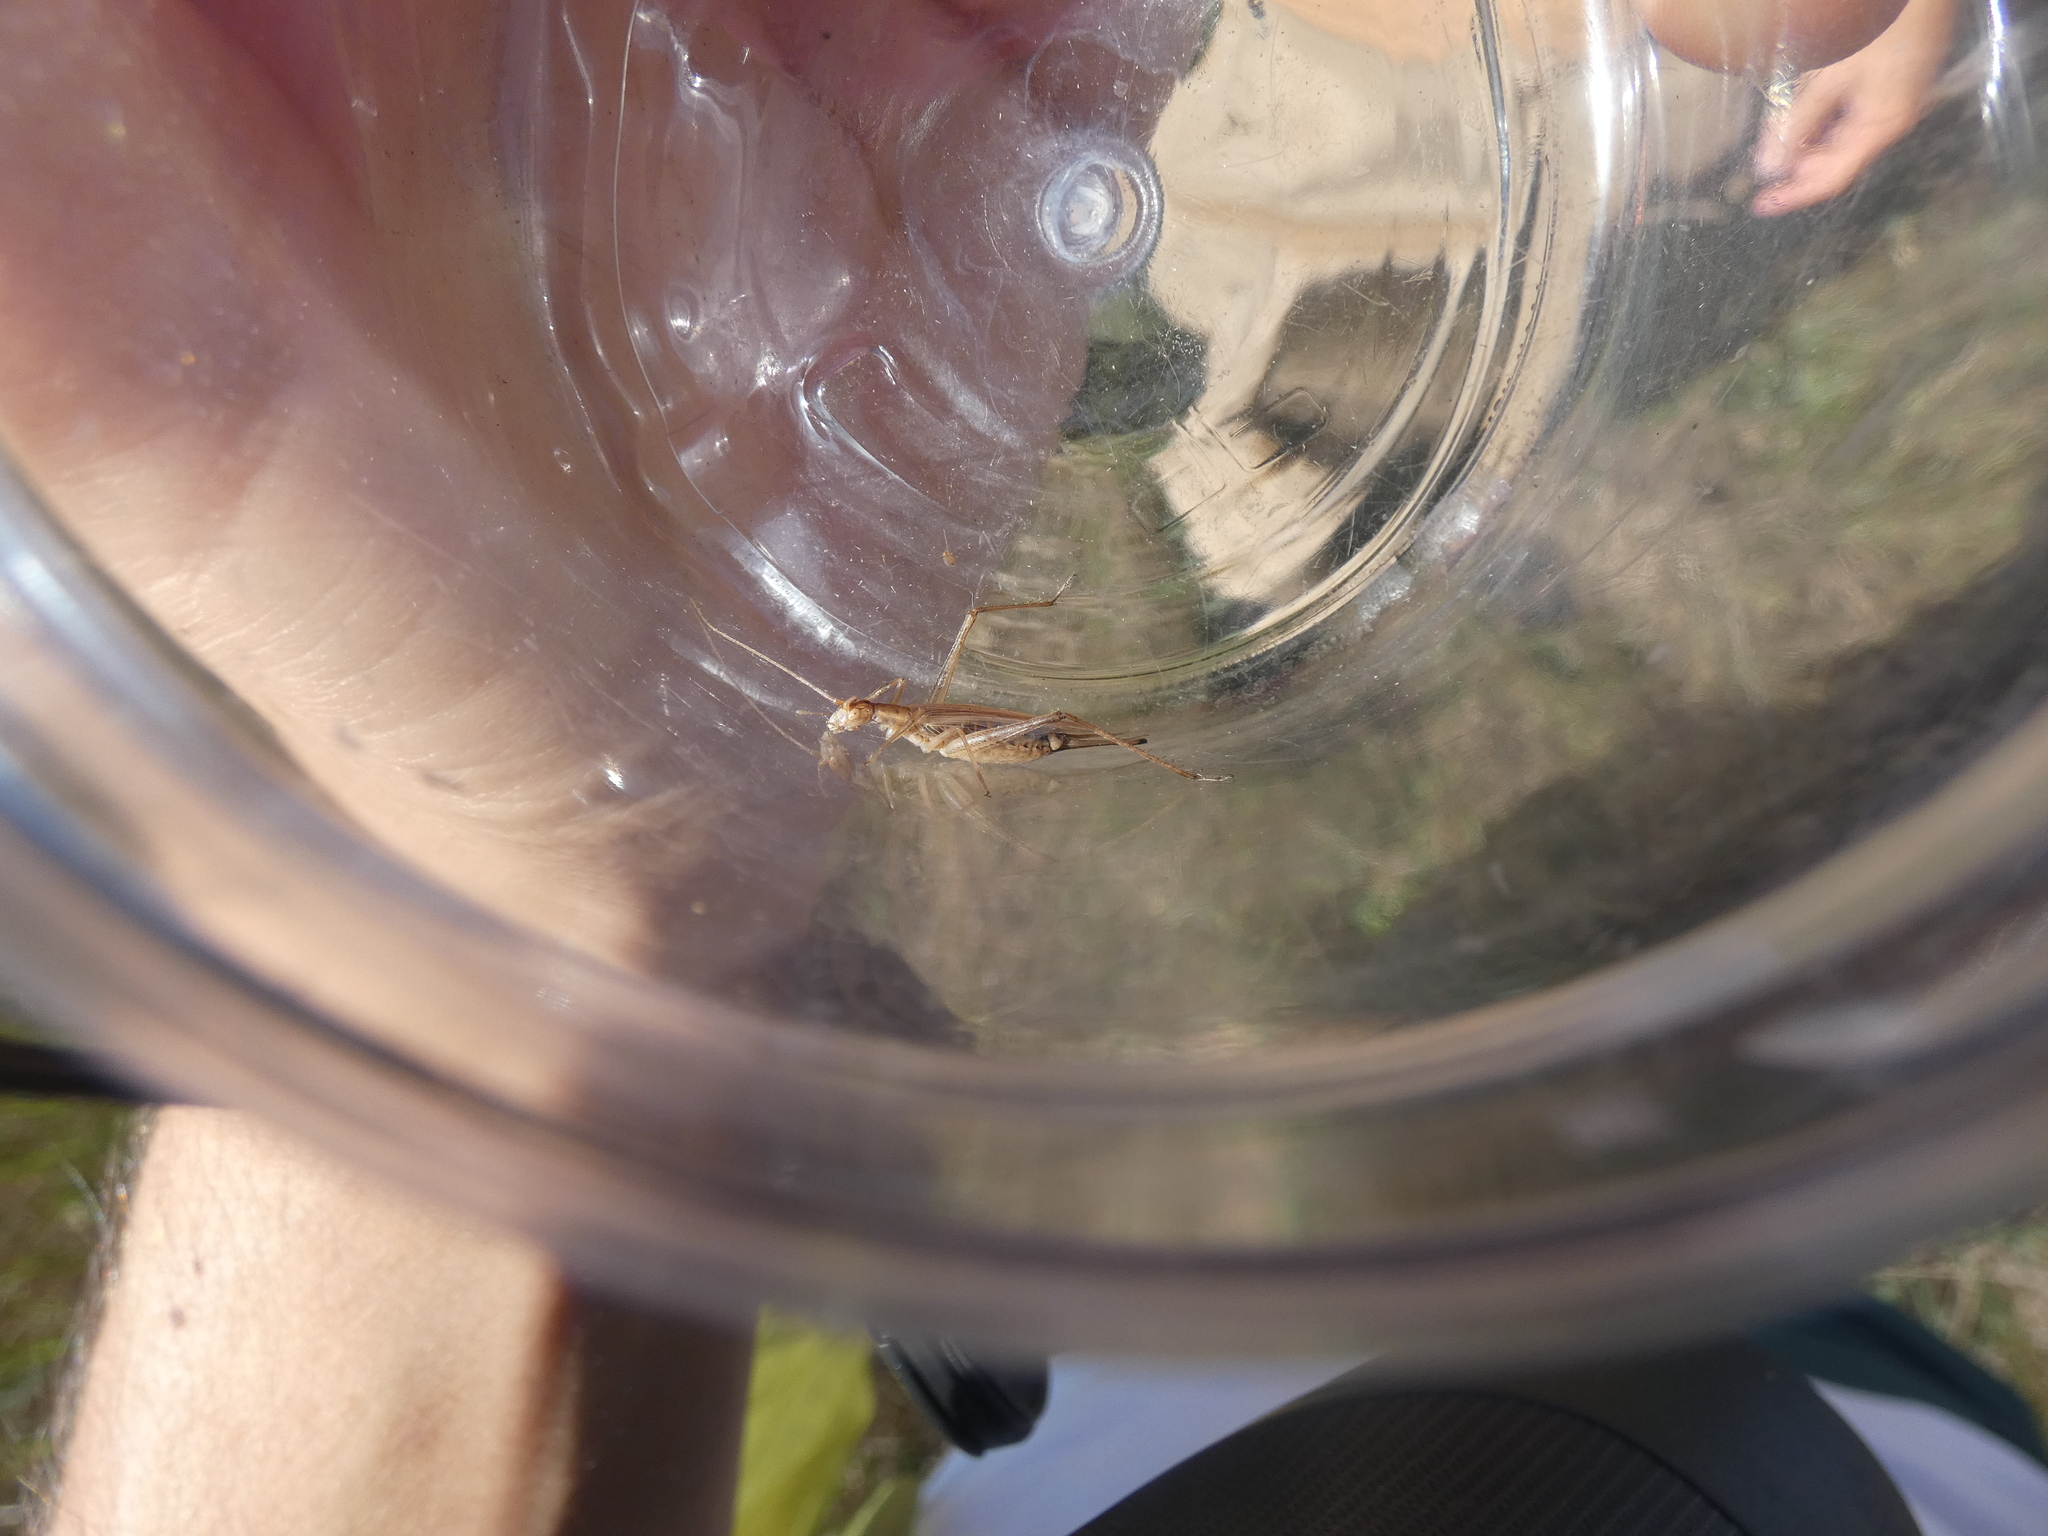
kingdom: Animalia
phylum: Arthropoda
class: Insecta
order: Orthoptera
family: Gryllidae
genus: Oecanthus
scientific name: Oecanthus pellucens
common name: Tree-cricket
